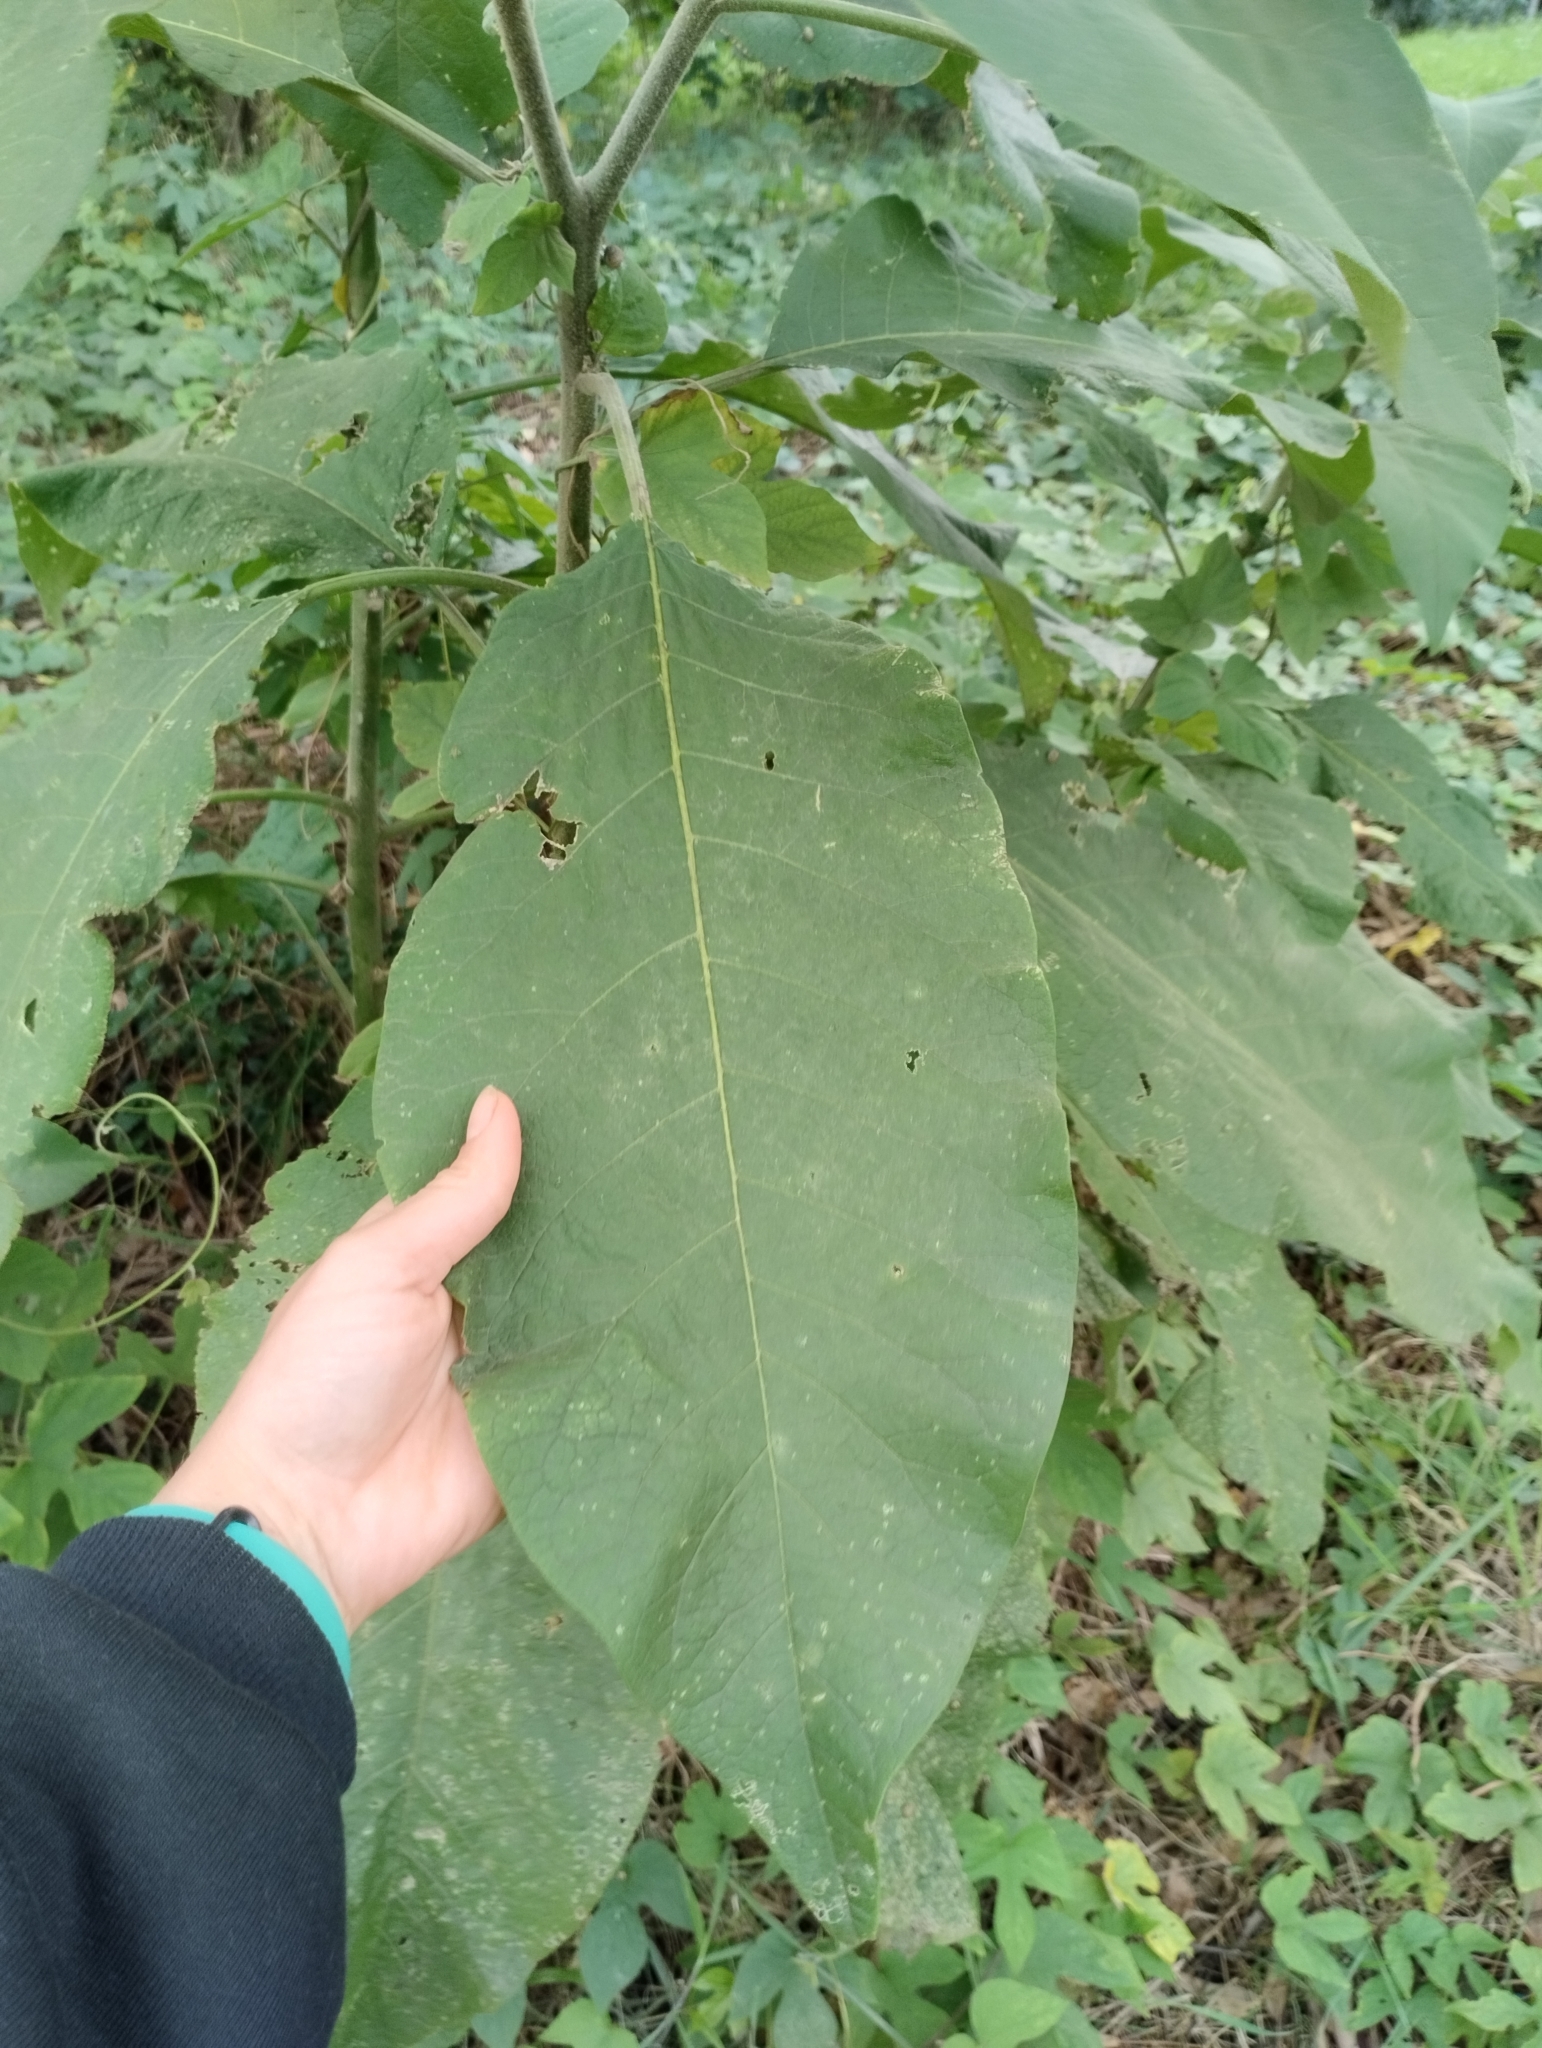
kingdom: Plantae
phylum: Tracheophyta
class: Magnoliopsida
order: Solanales
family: Solanaceae
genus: Solanum
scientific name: Solanum mauritianum
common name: Earleaf nightshade
